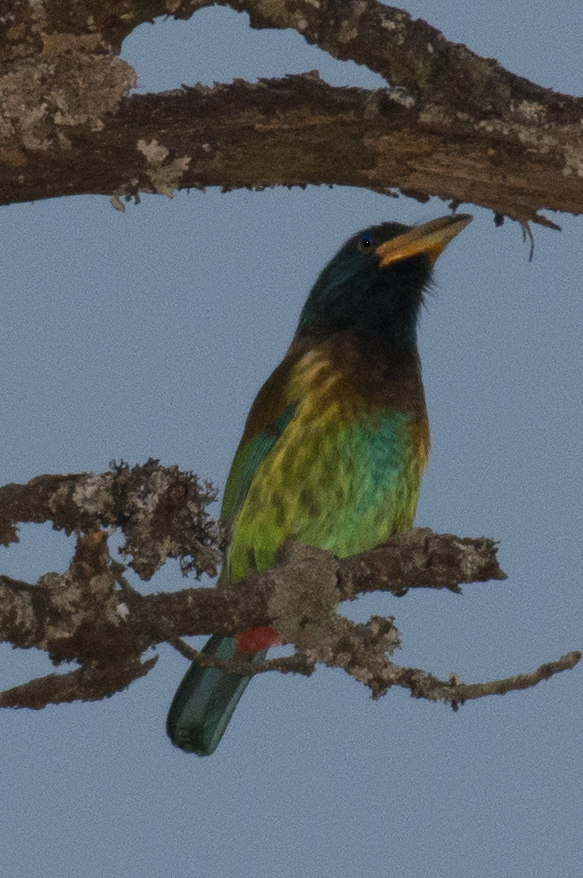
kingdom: Animalia
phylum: Chordata
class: Aves
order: Piciformes
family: Megalaimidae
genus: Psilopogon
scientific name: Psilopogon virens
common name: Great barbet
